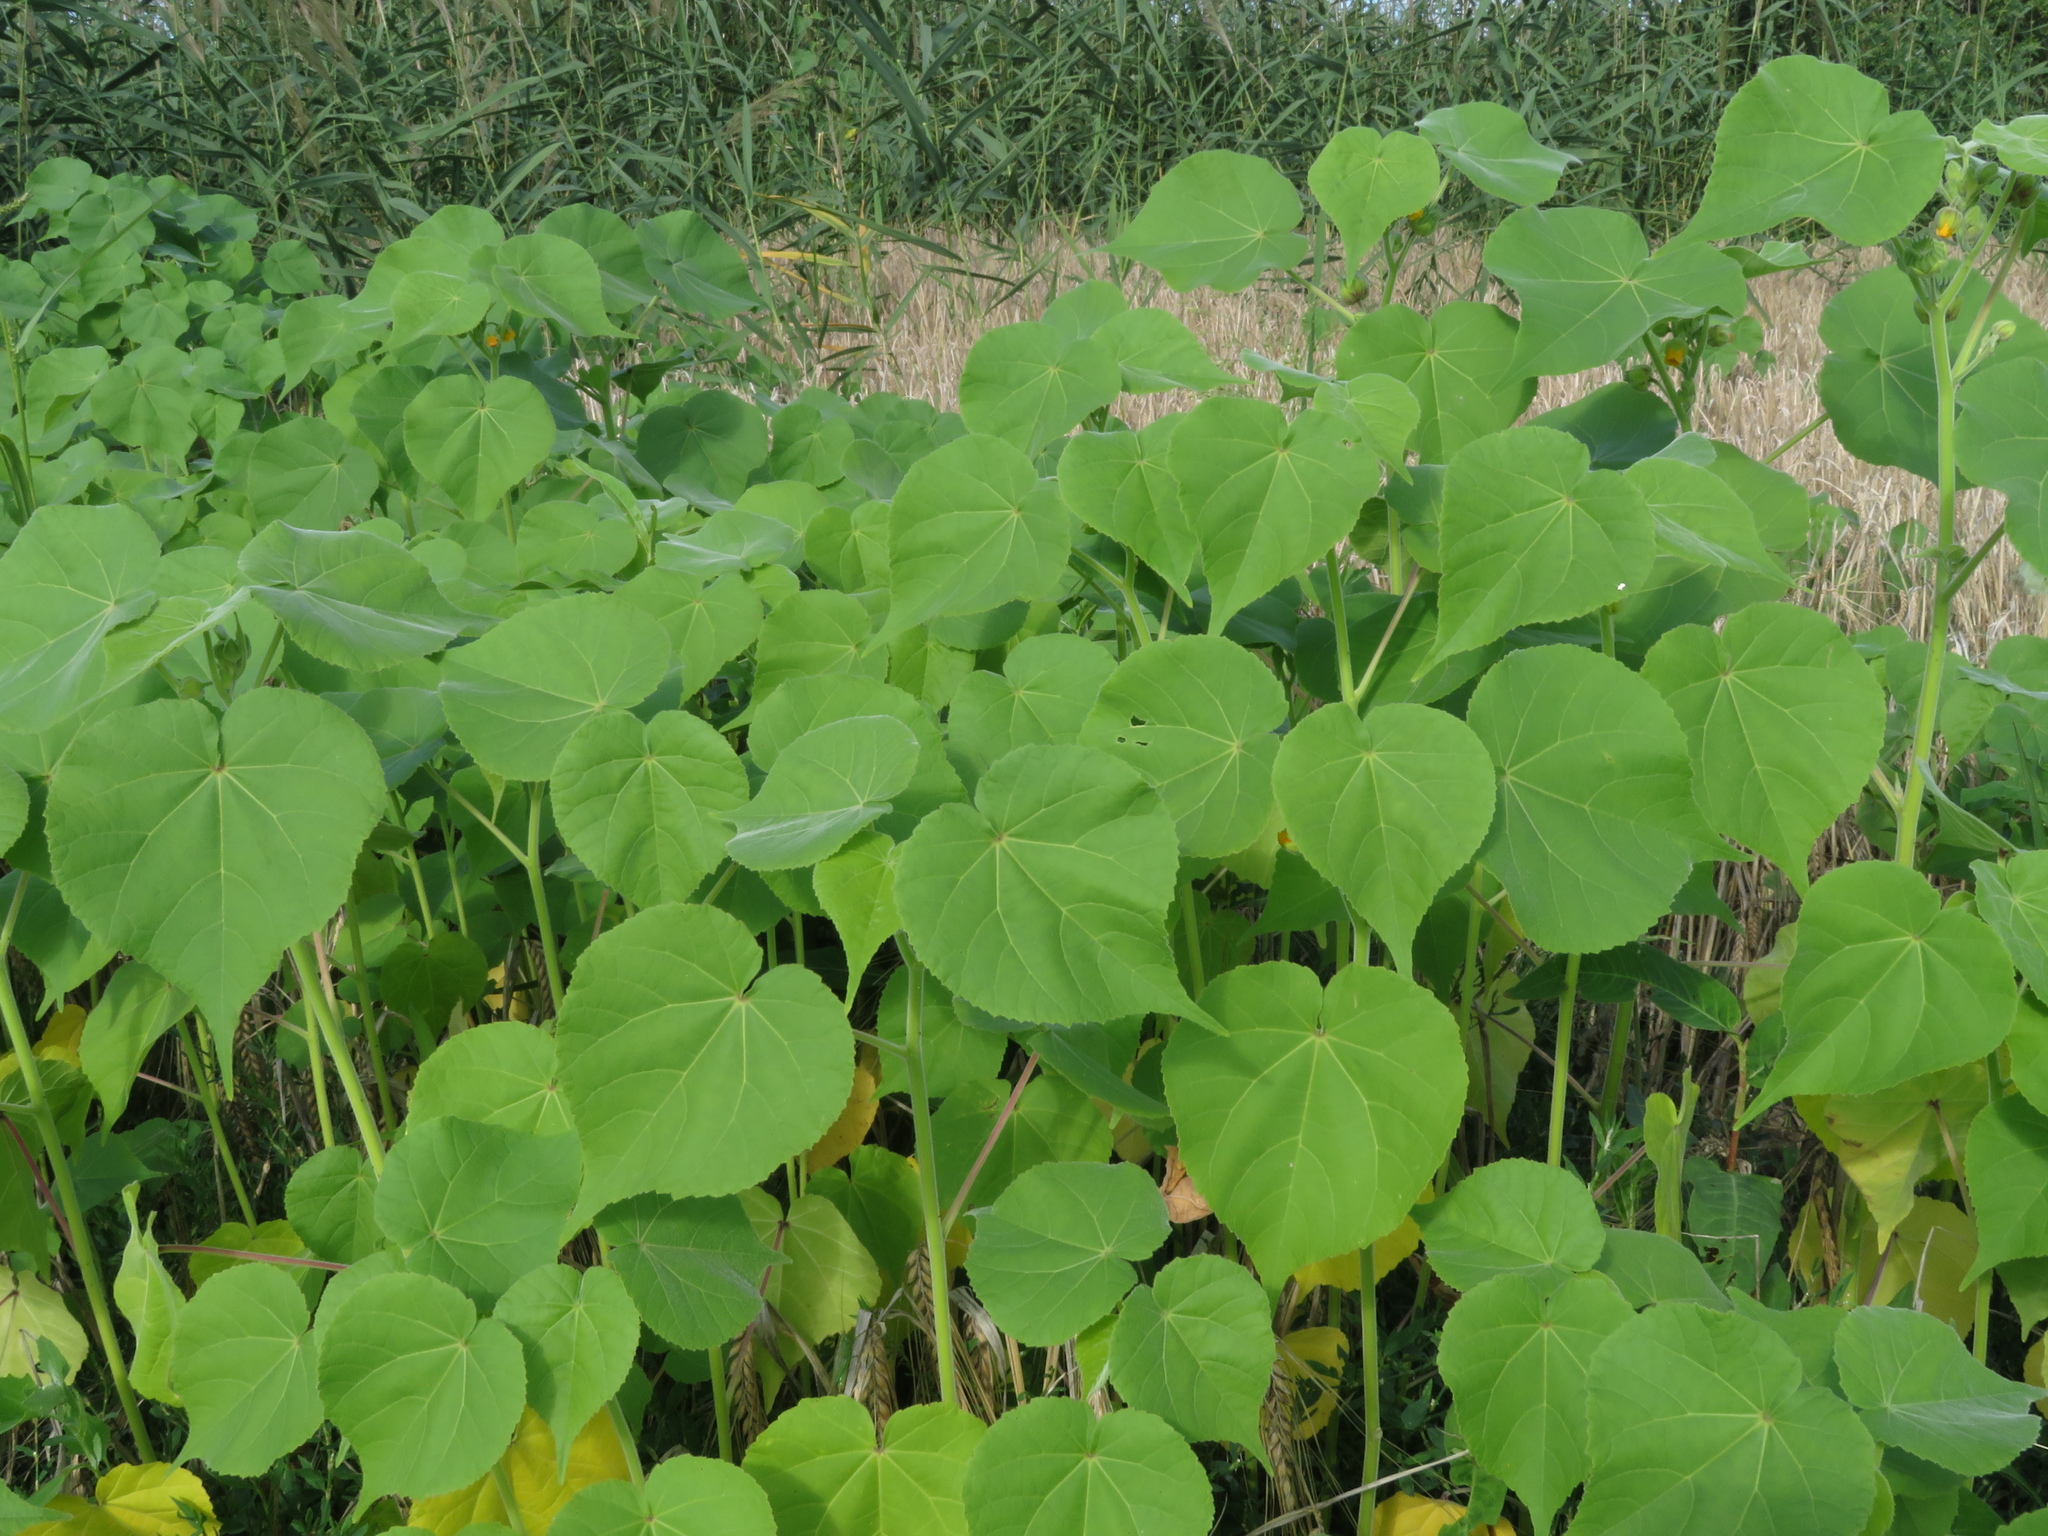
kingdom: Plantae
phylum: Tracheophyta
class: Magnoliopsida
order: Malvales
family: Malvaceae
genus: Abutilon
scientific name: Abutilon theophrasti
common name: Velvetleaf
